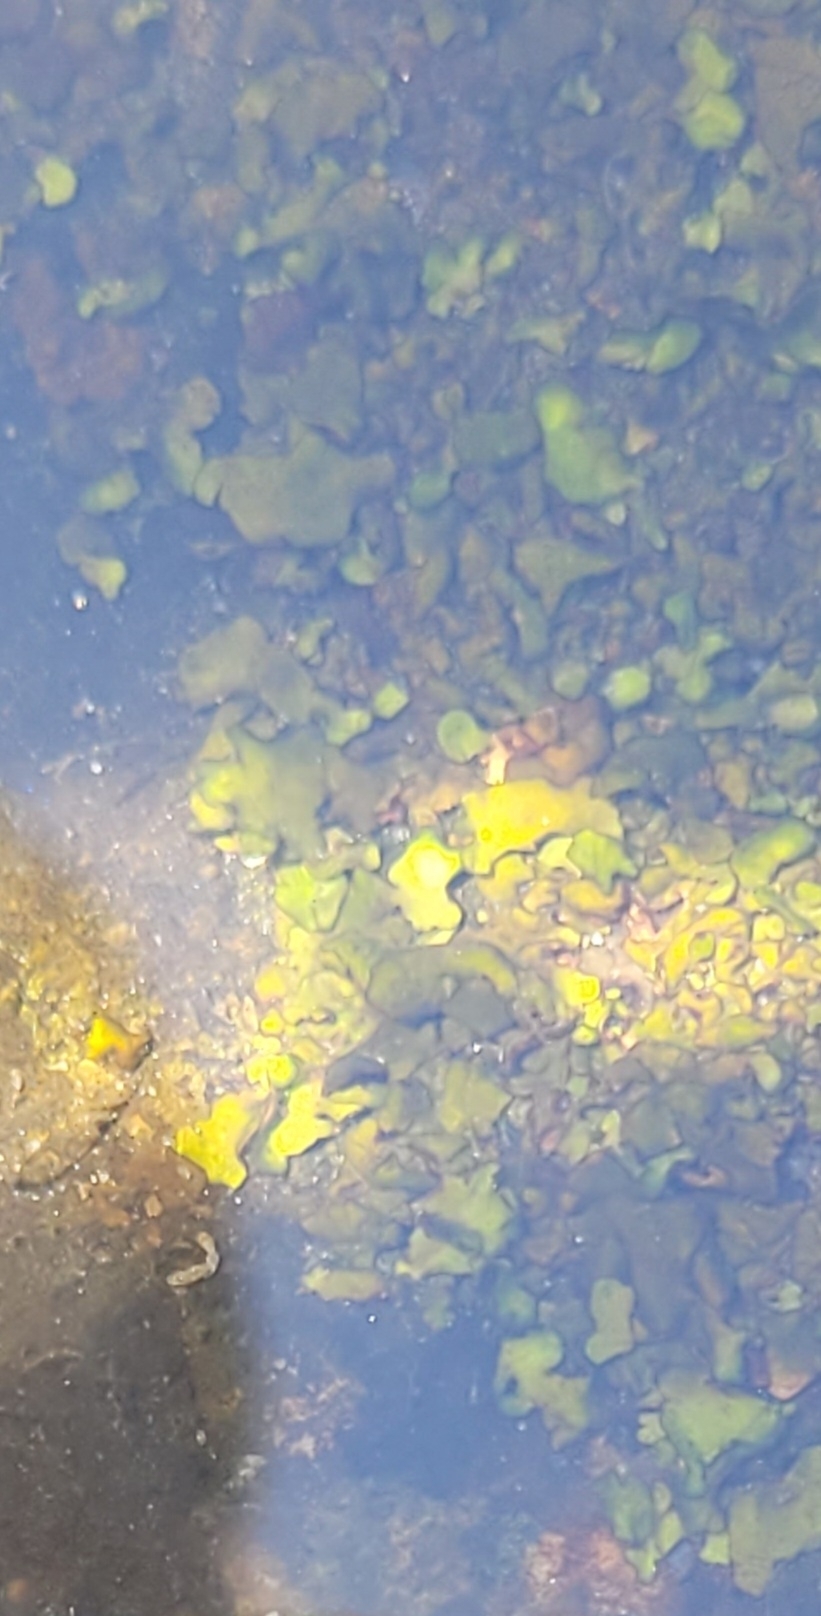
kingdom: Fungi
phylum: Ascomycota
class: Eurotiomycetes
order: Verrucariales
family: Verrucariaceae
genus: Dermatocarpon
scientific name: Dermatocarpon luridum
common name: Brook stippleback lichen
